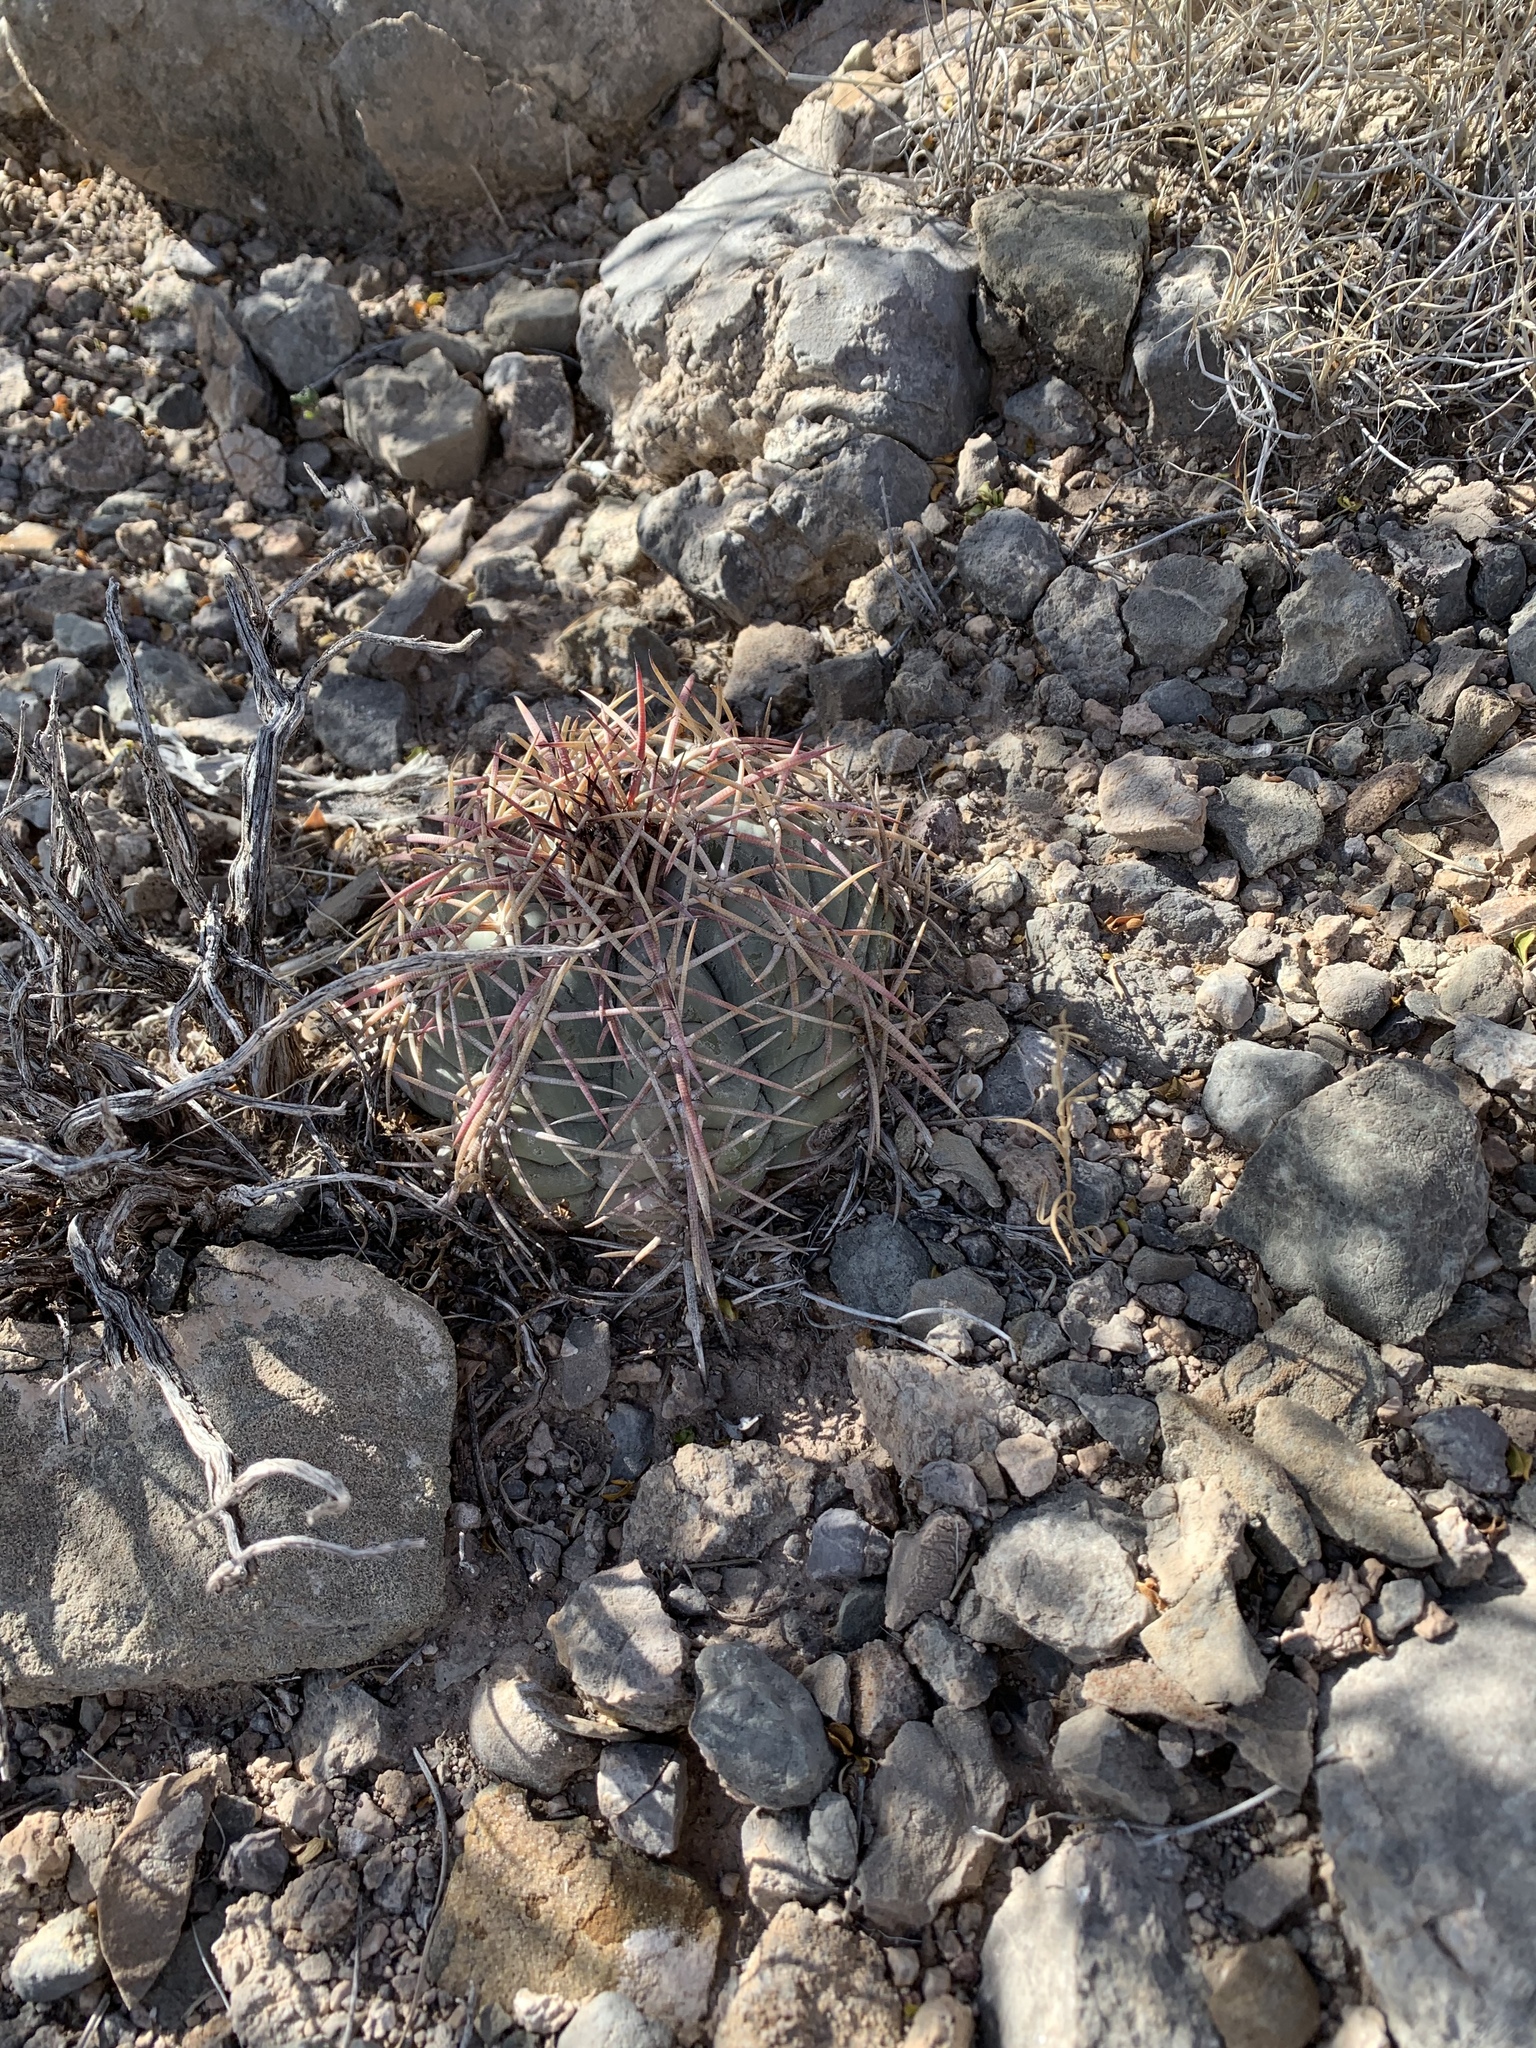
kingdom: Plantae
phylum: Tracheophyta
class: Magnoliopsida
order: Caryophyllales
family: Cactaceae
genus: Echinocactus
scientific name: Echinocactus horizonthalonius
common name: Devilshead
